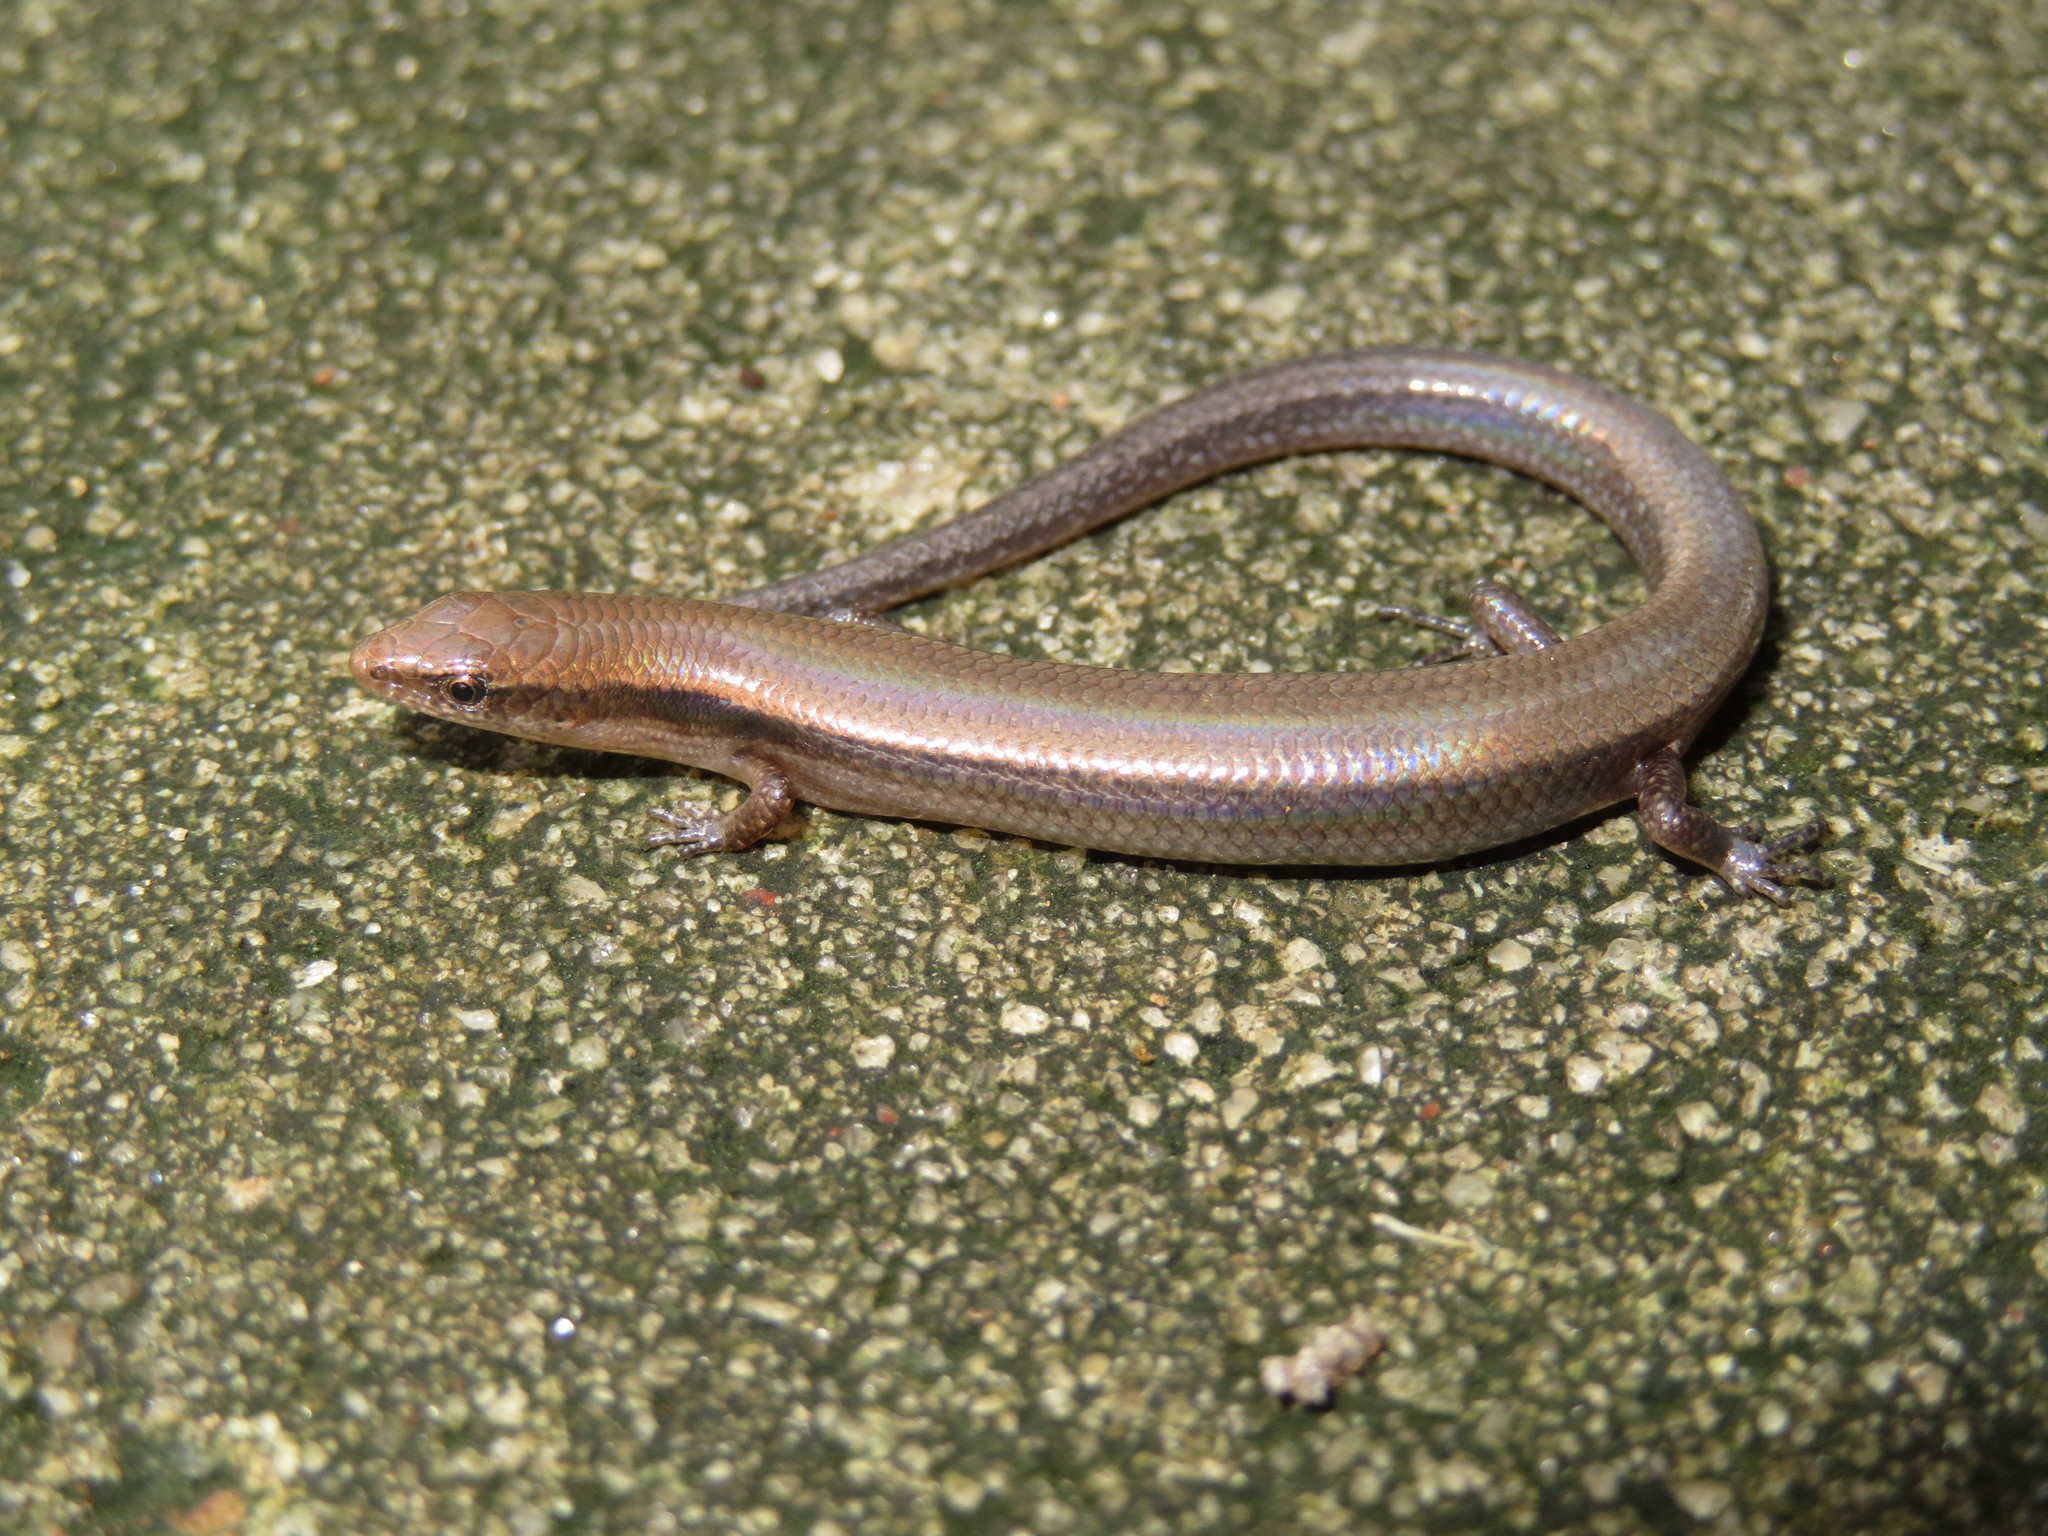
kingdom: Animalia
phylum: Chordata
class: Squamata
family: Scincidae
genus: Panaspis
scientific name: Panaspis wahlbergii
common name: Angolan snake-eyed skink
